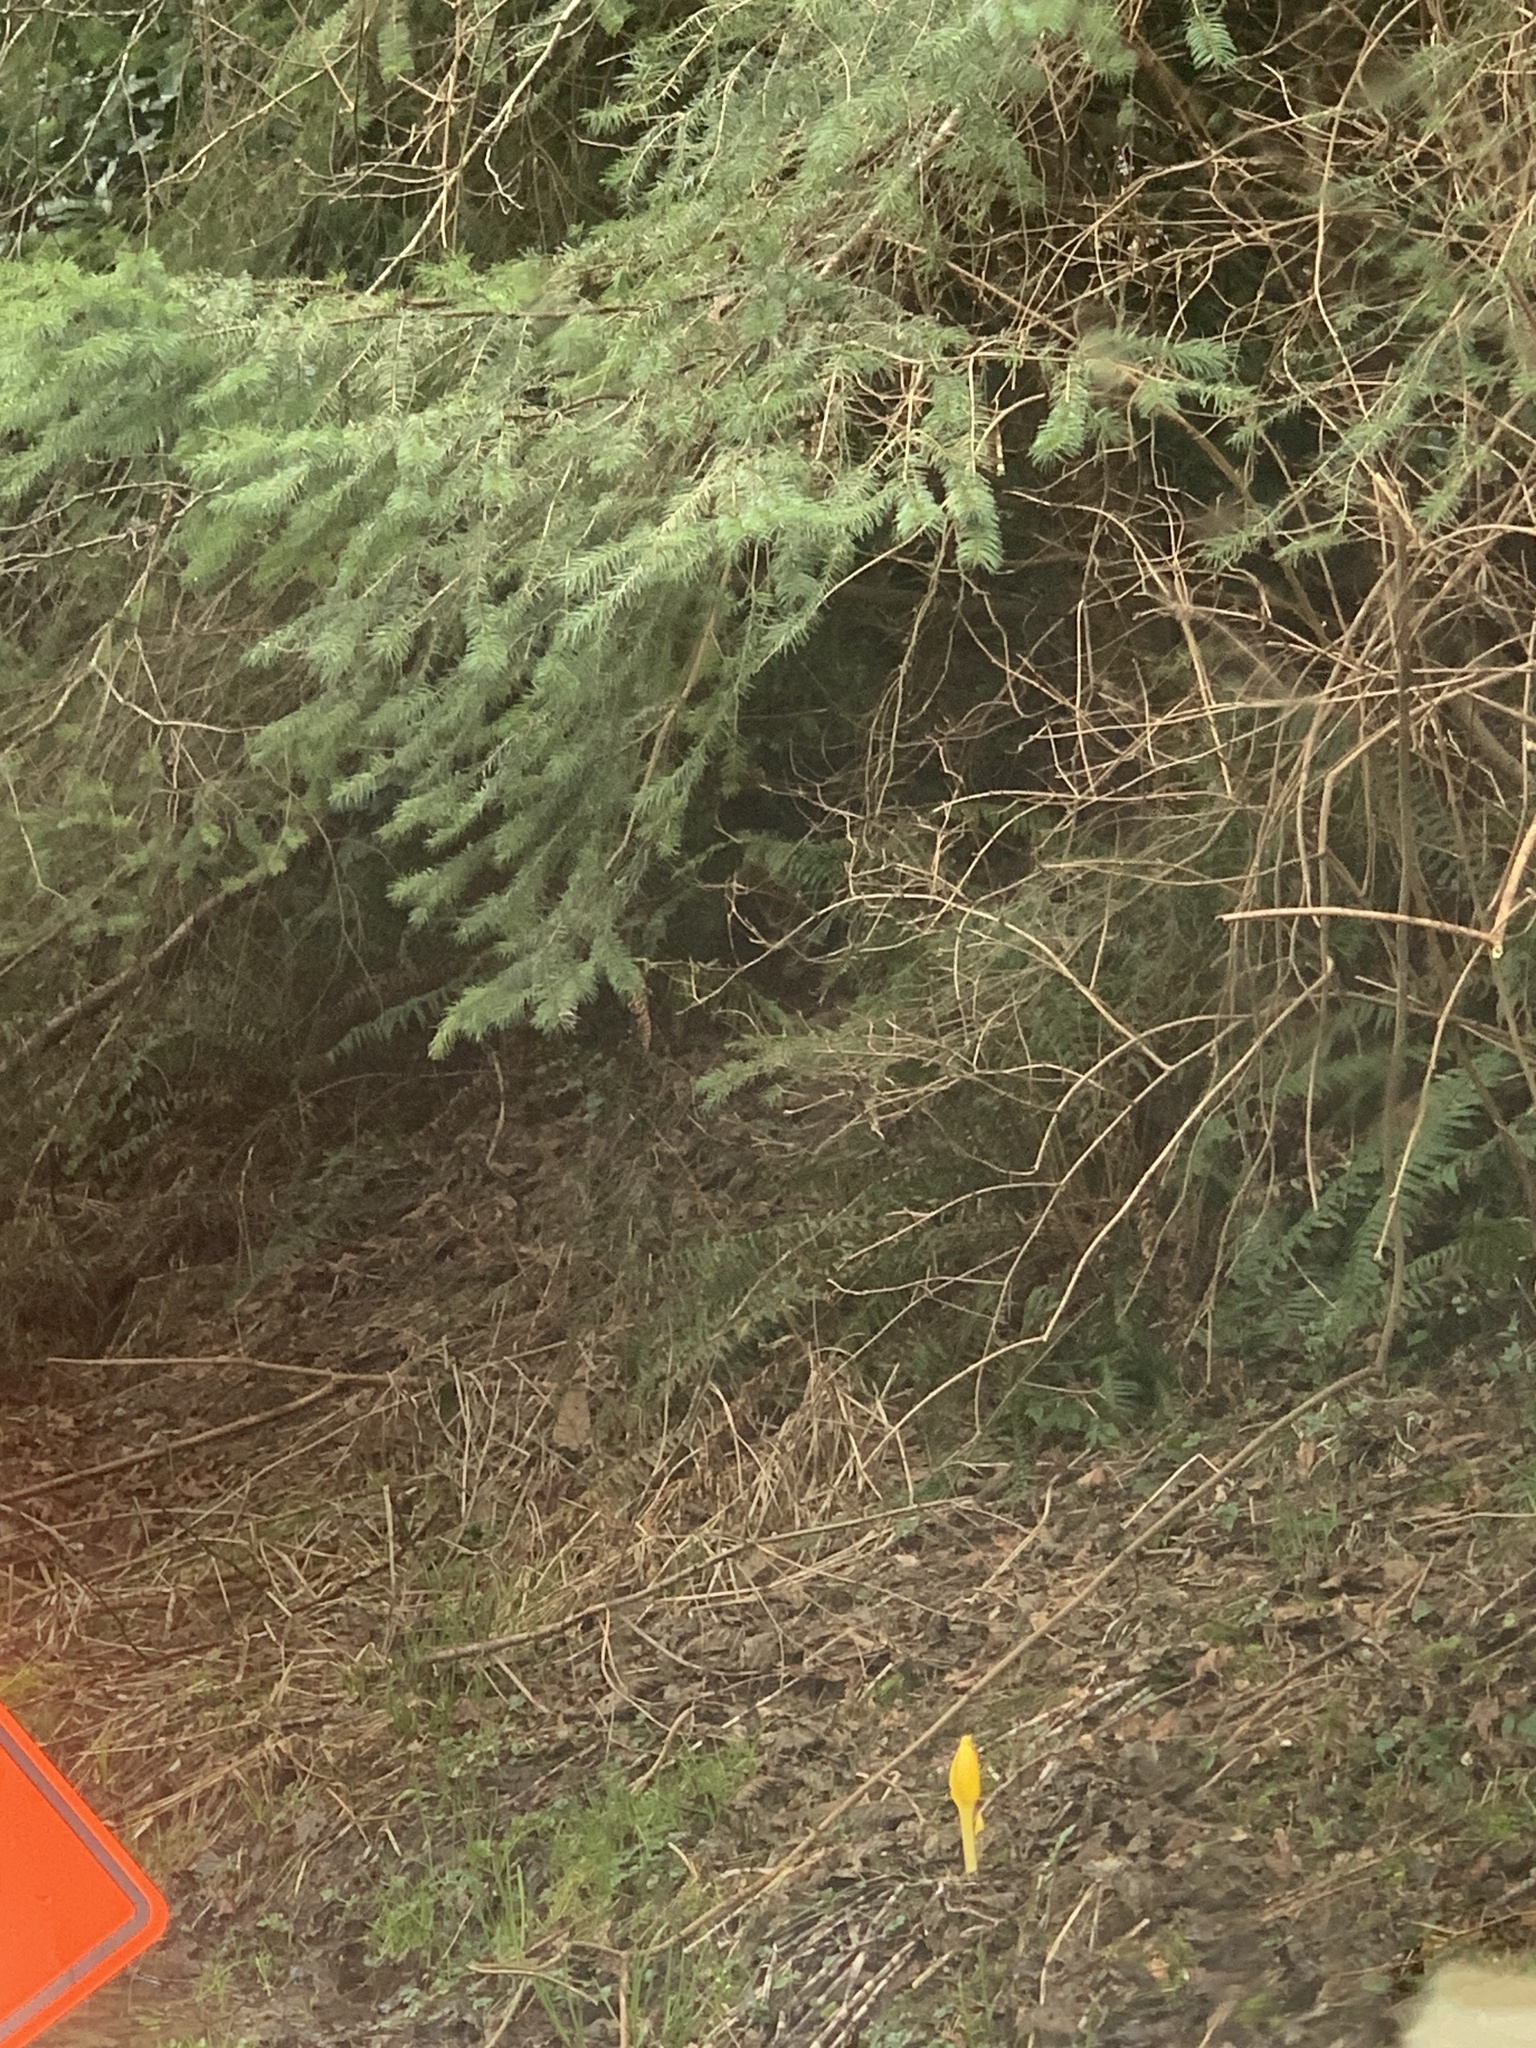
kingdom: Plantae
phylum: Tracheophyta
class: Liliopsida
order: Alismatales
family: Araceae
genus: Lysichiton
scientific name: Lysichiton americanus
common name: American skunk cabbage
